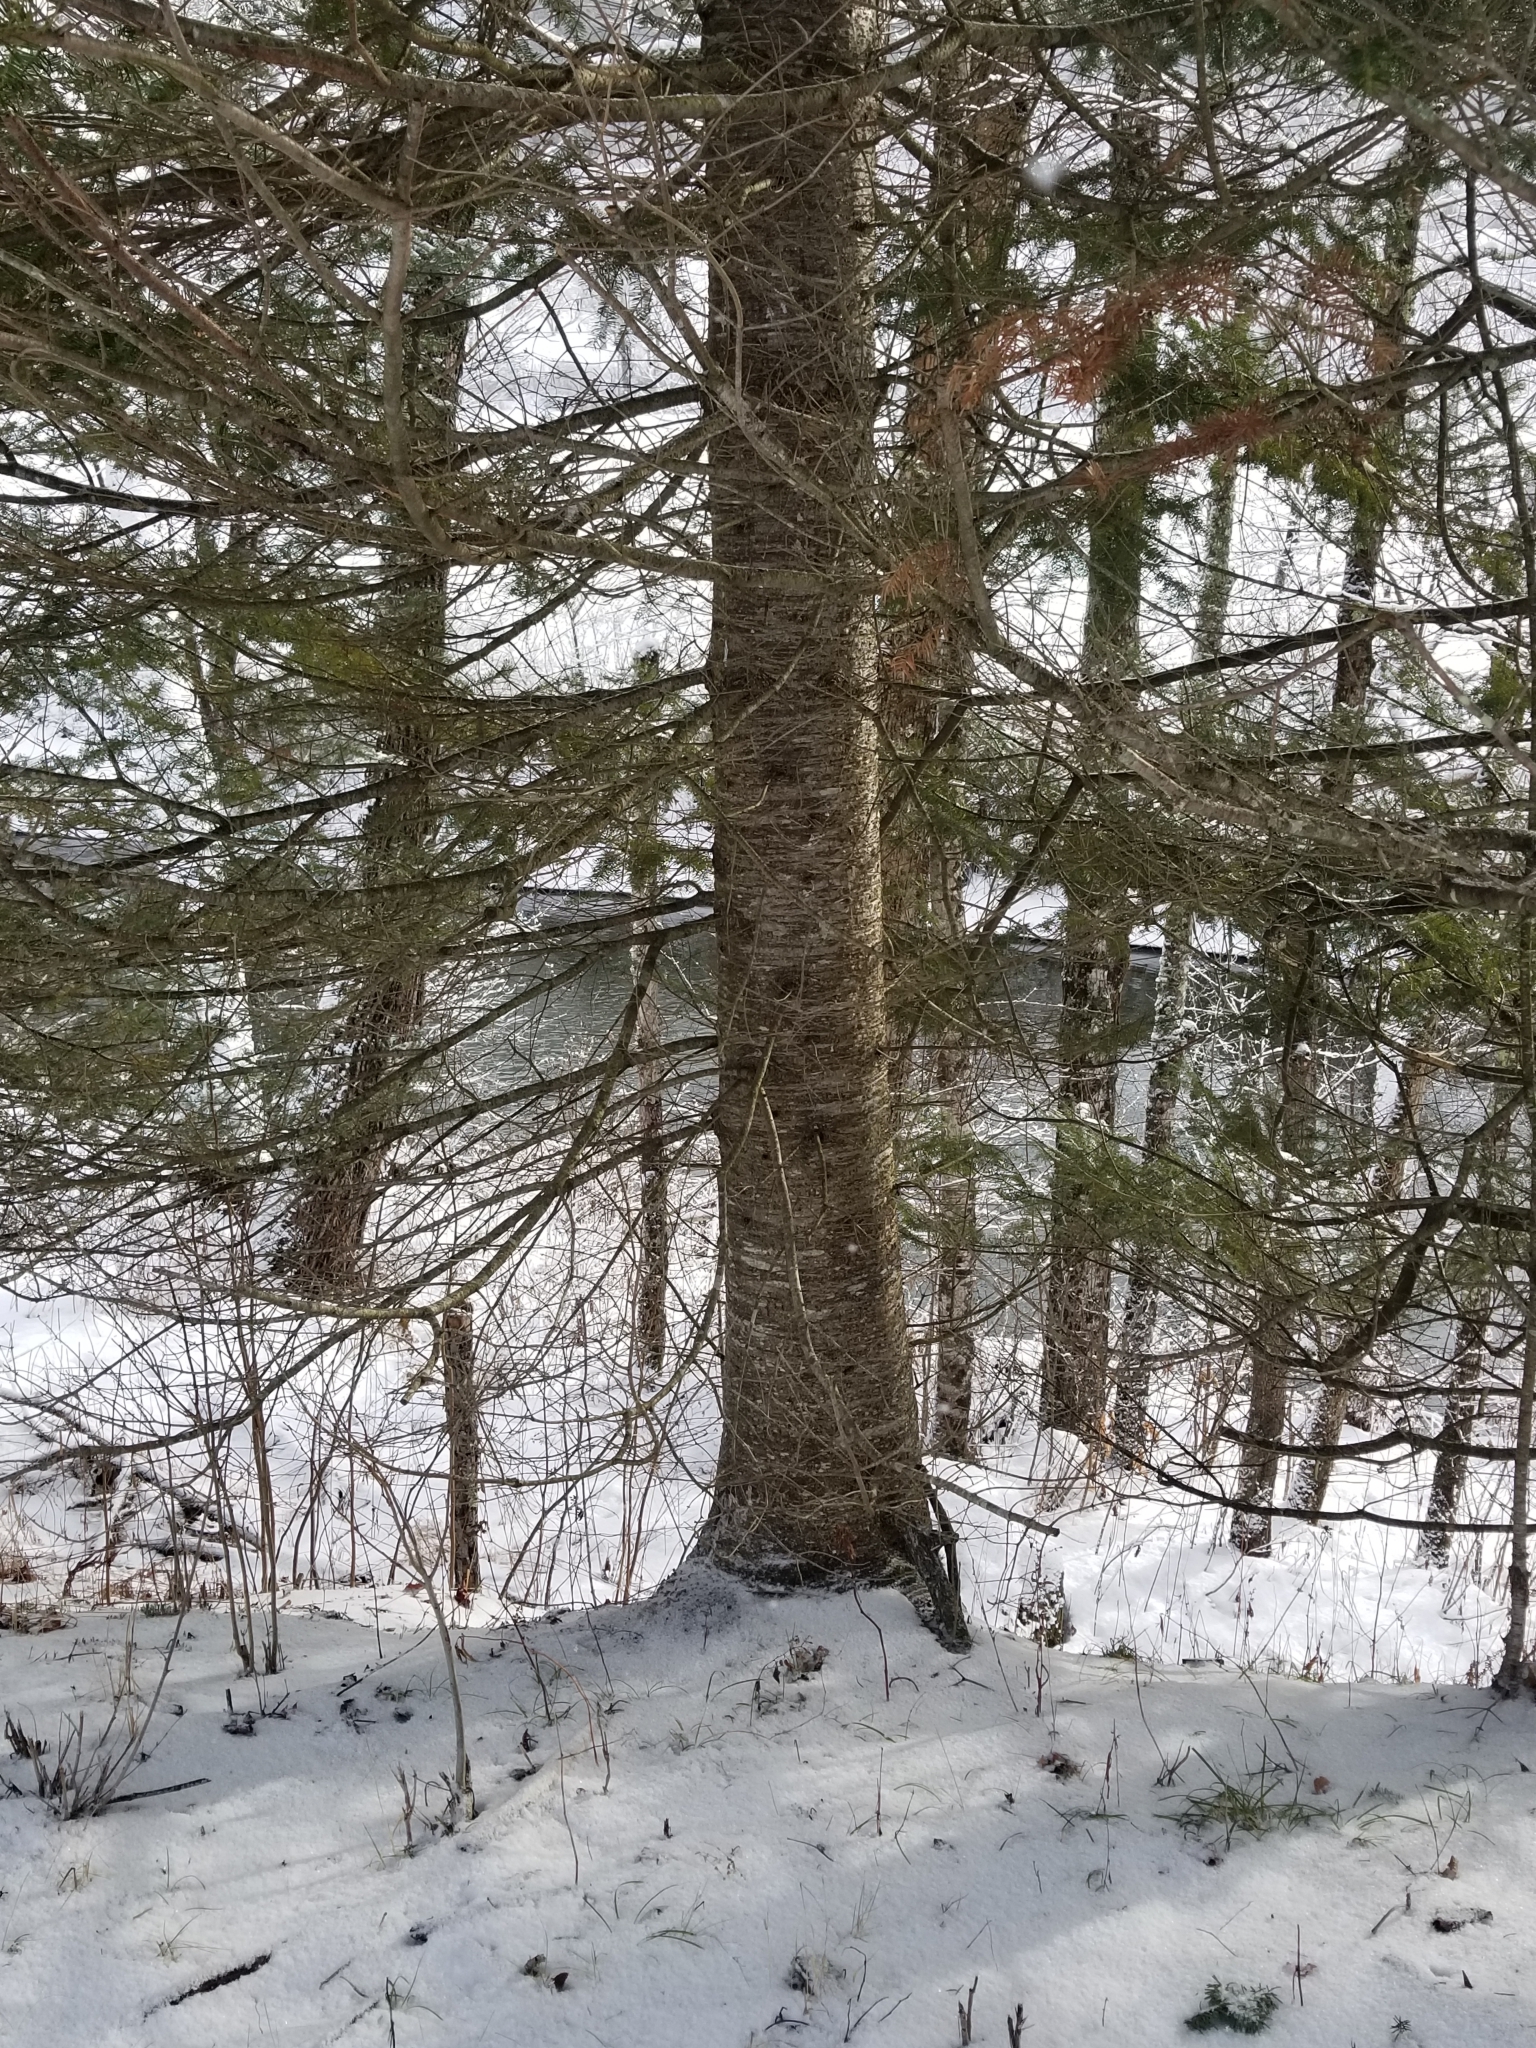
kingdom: Plantae
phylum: Tracheophyta
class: Pinopsida
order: Pinales
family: Pinaceae
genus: Abies
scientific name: Abies balsamea
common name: Balsam fir
